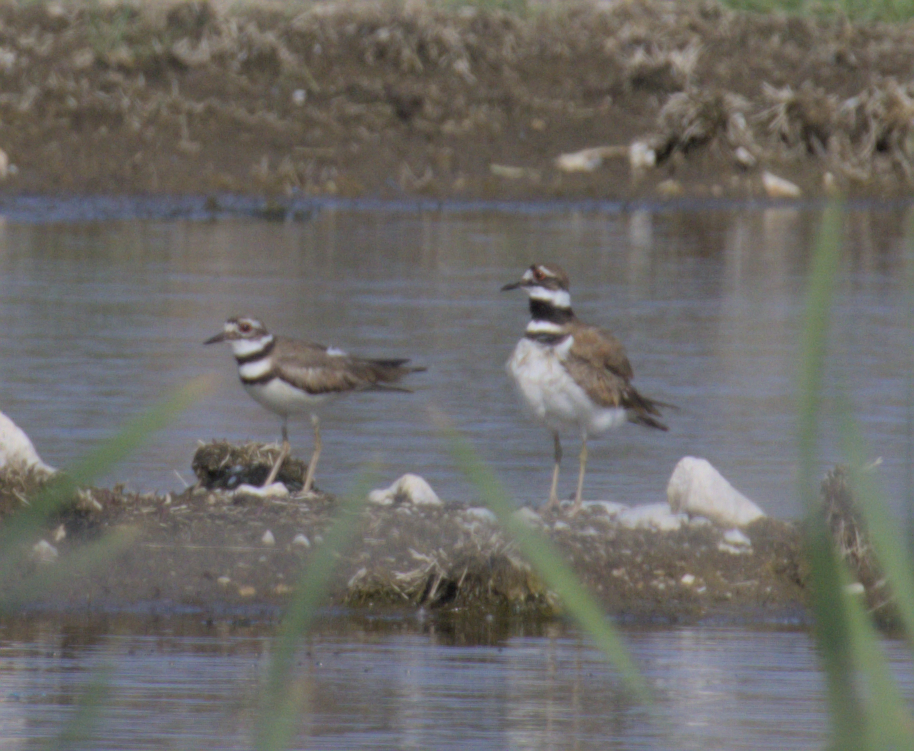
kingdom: Animalia
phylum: Chordata
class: Aves
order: Charadriiformes
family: Charadriidae
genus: Charadrius
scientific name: Charadrius vociferus
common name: Killdeer
